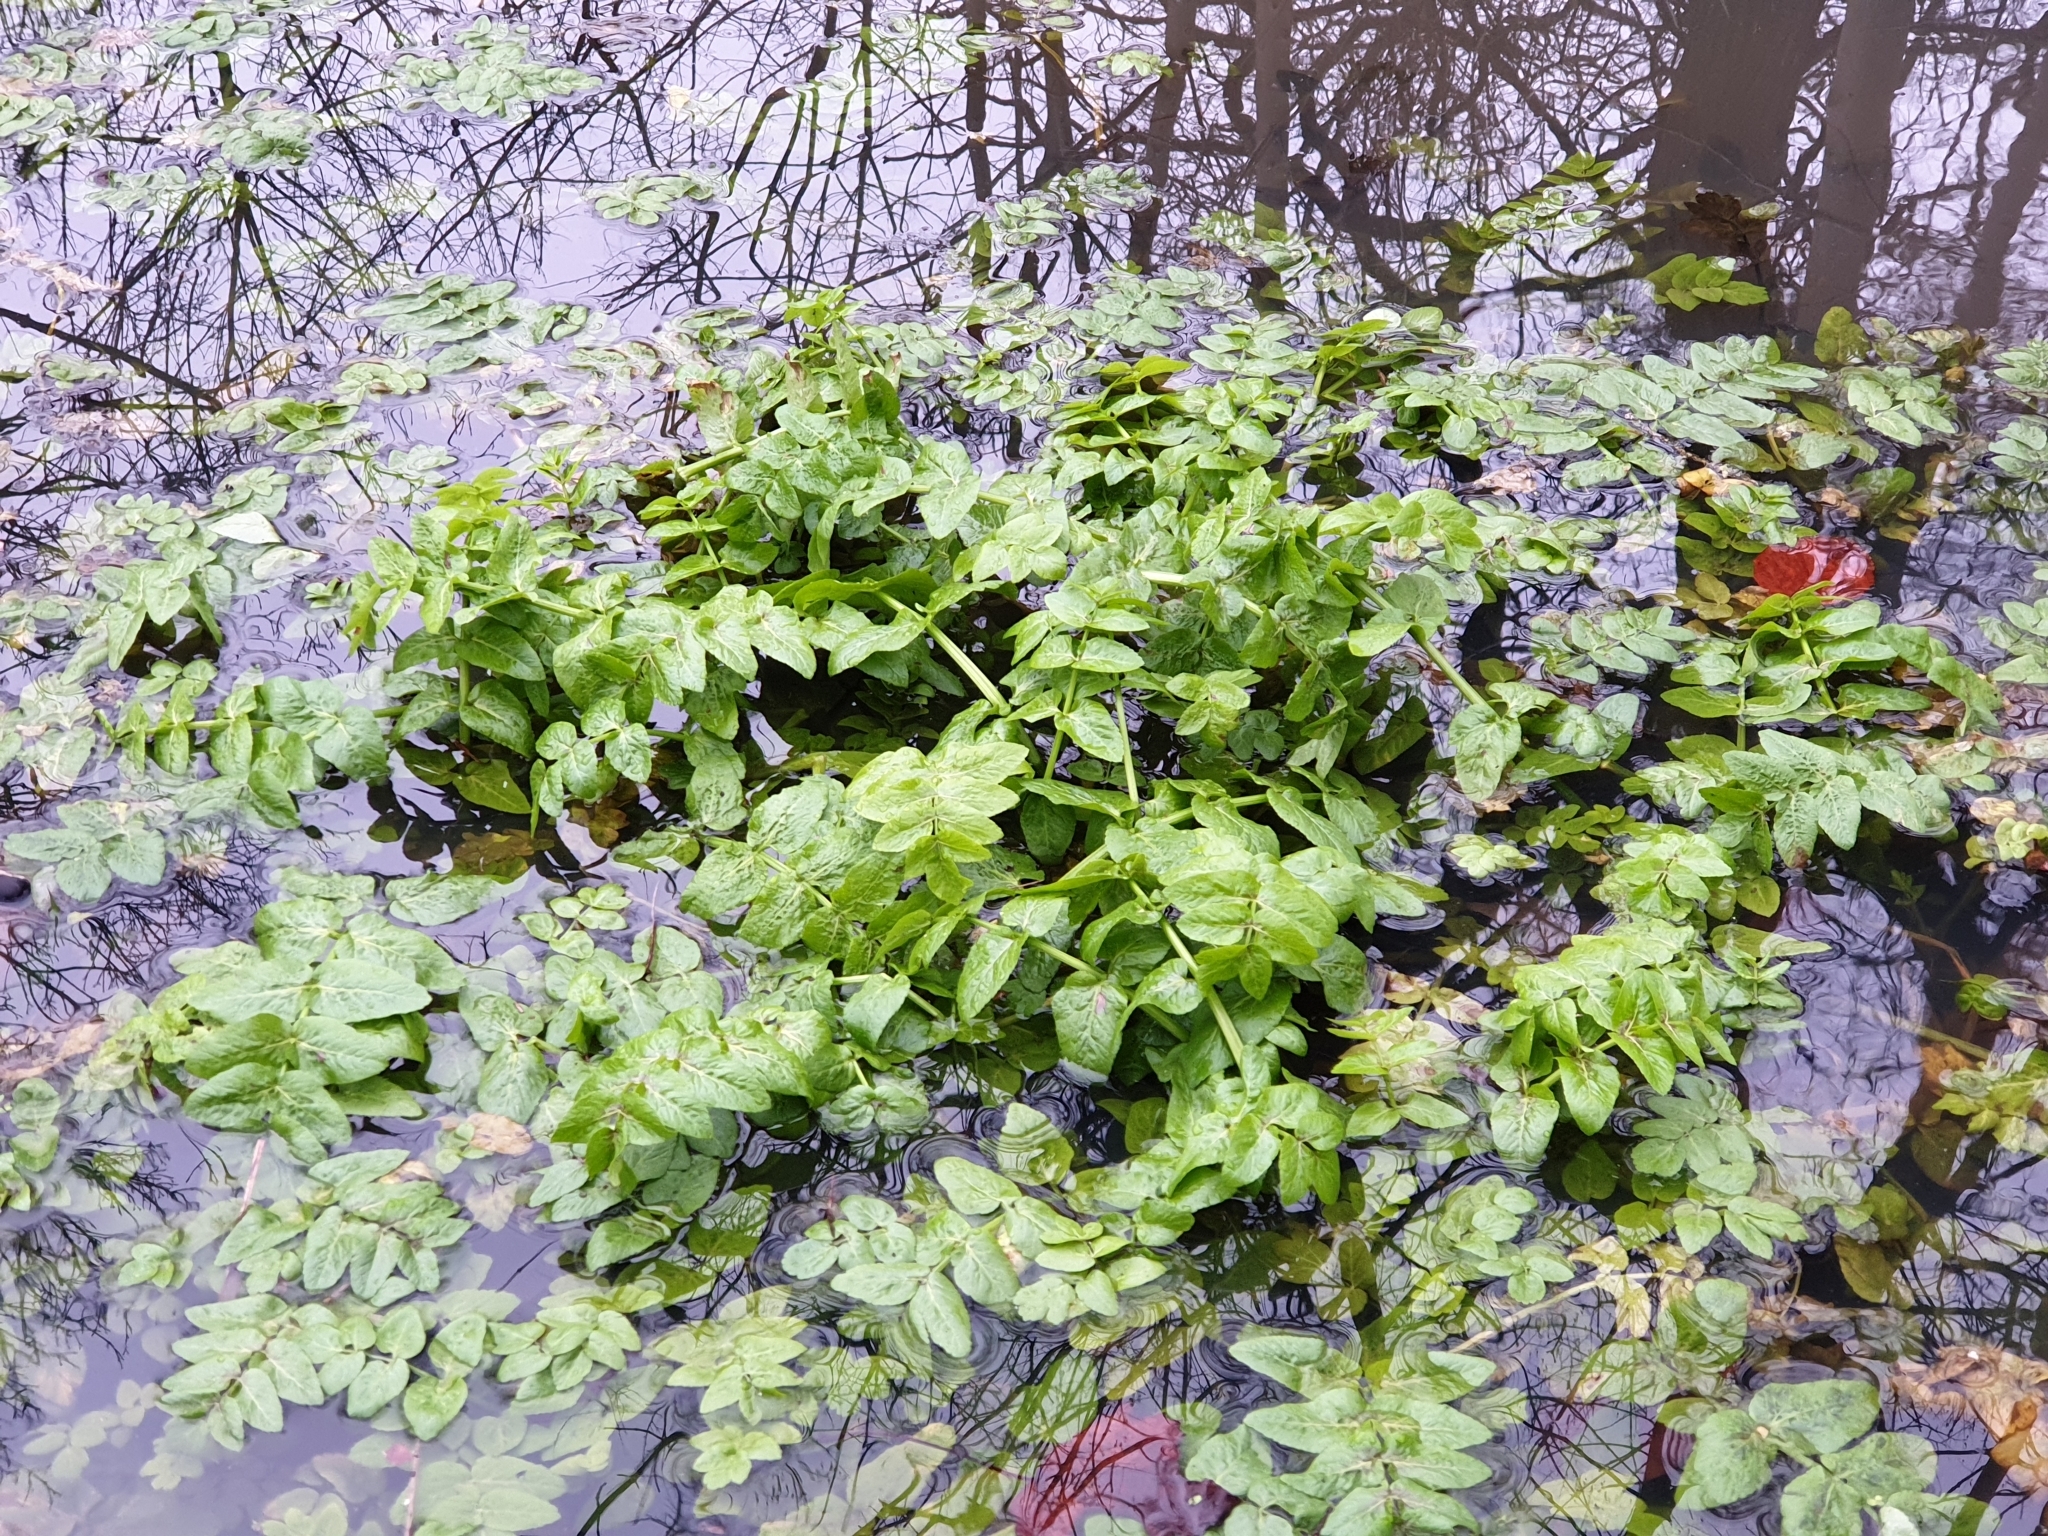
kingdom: Plantae
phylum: Tracheophyta
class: Magnoliopsida
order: Apiales
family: Apiaceae
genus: Helosciadium
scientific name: Helosciadium nodiflorum
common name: Fool's-watercress
